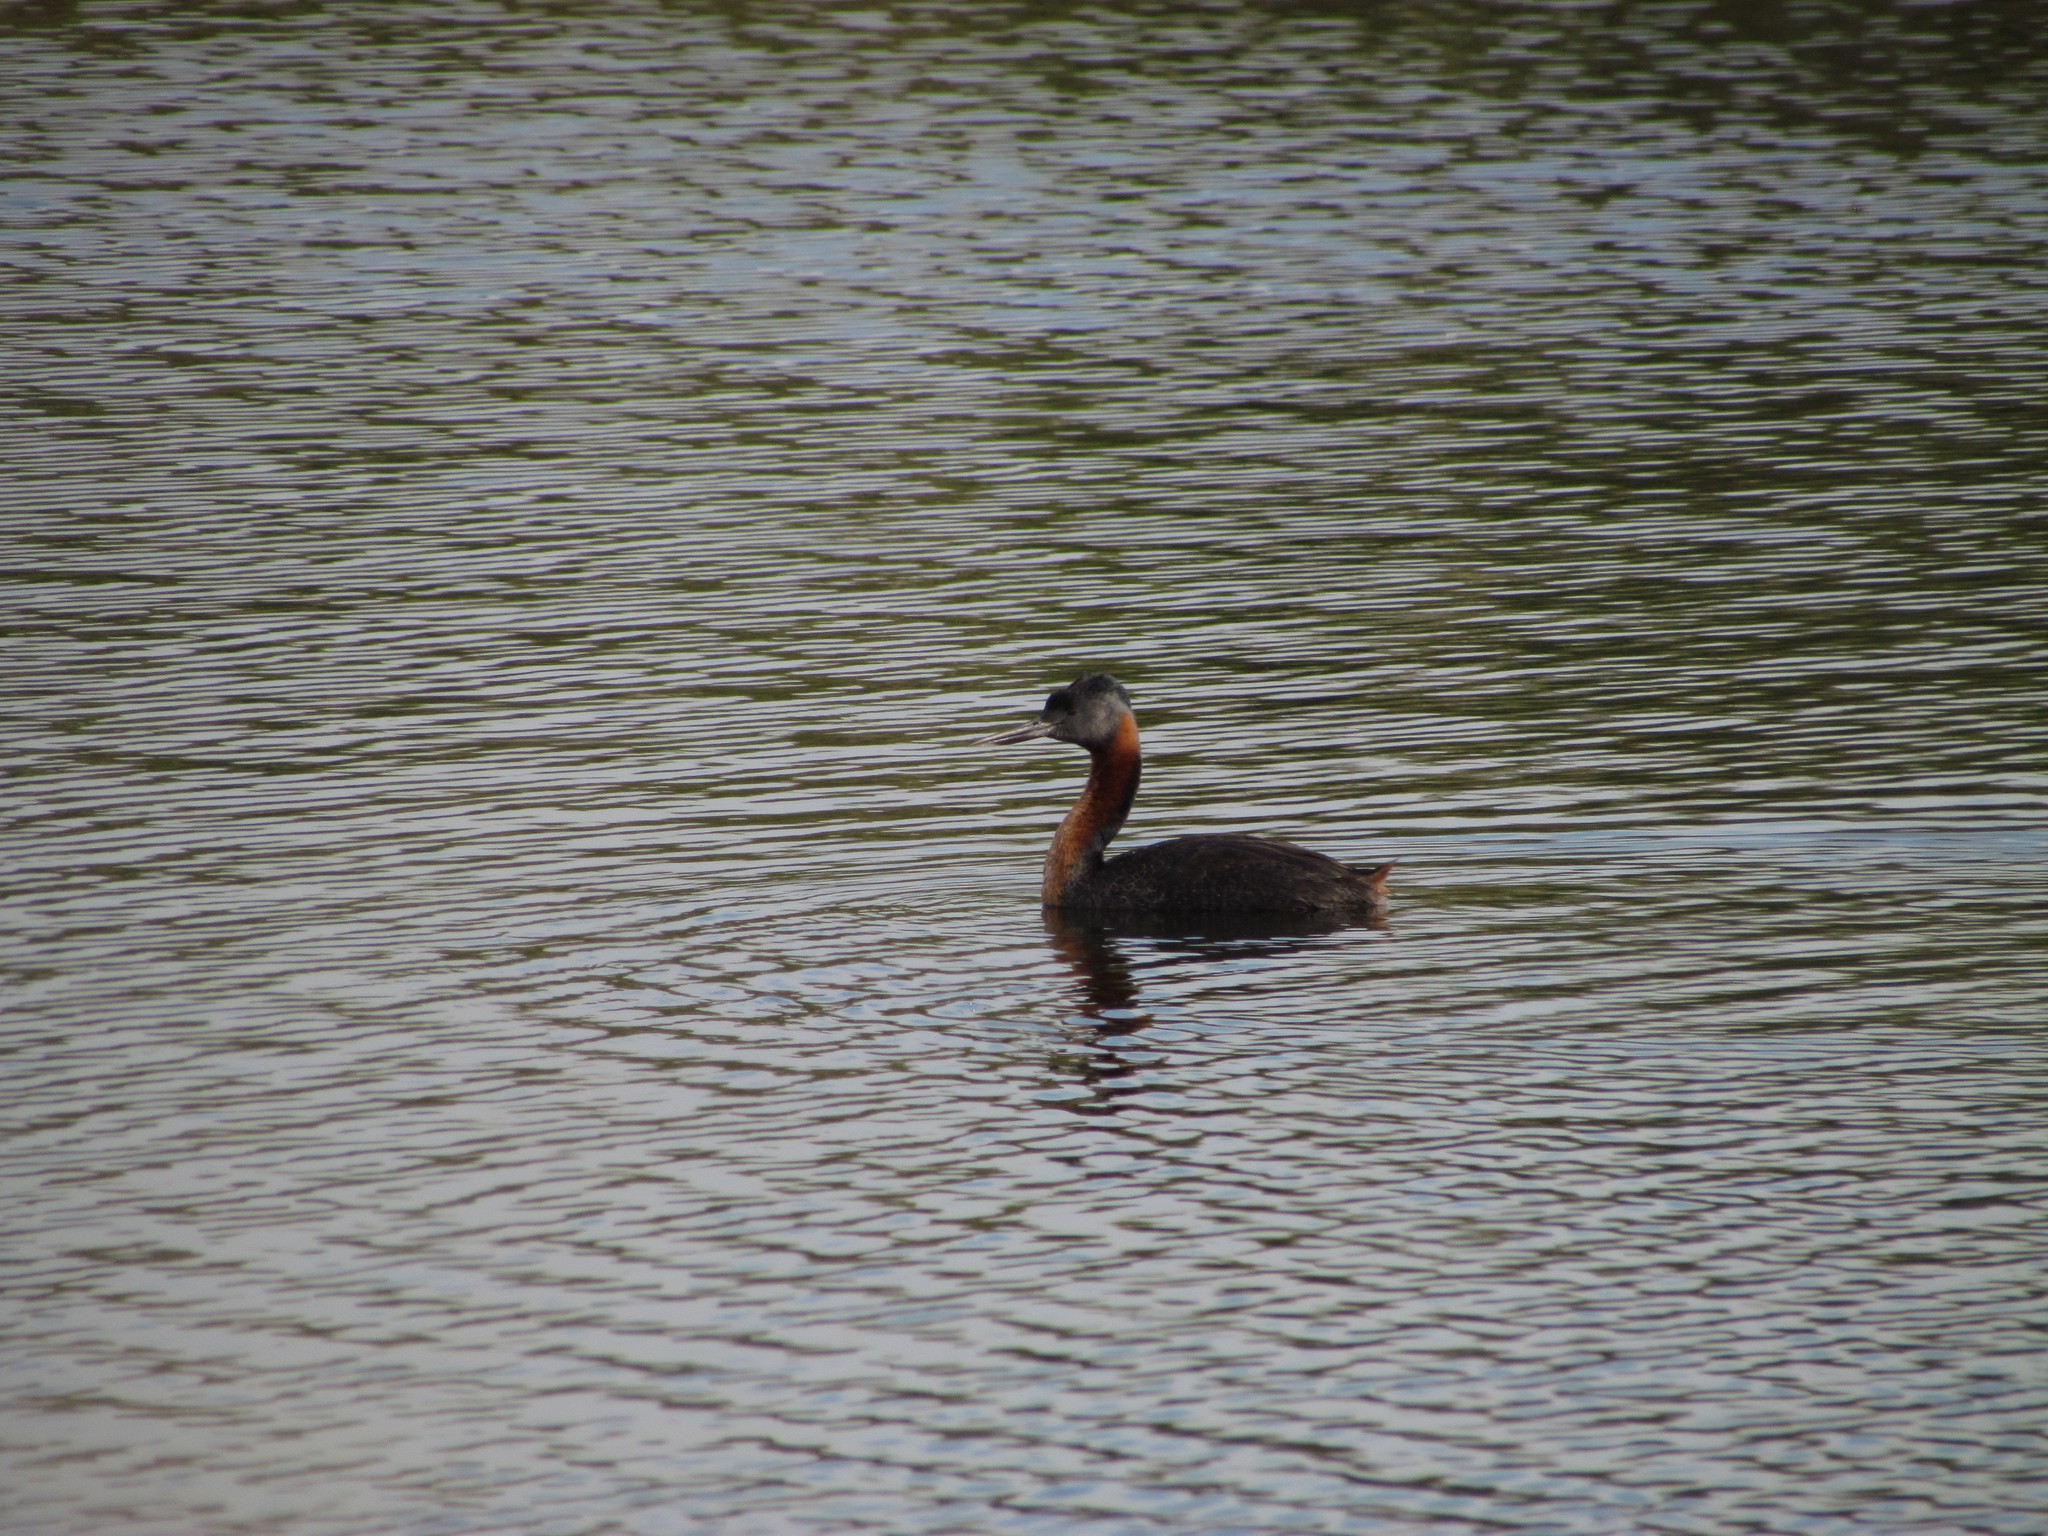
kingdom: Animalia
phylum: Chordata
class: Aves
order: Podicipediformes
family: Podicipedidae
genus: Podiceps
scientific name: Podiceps major
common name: Great grebe
